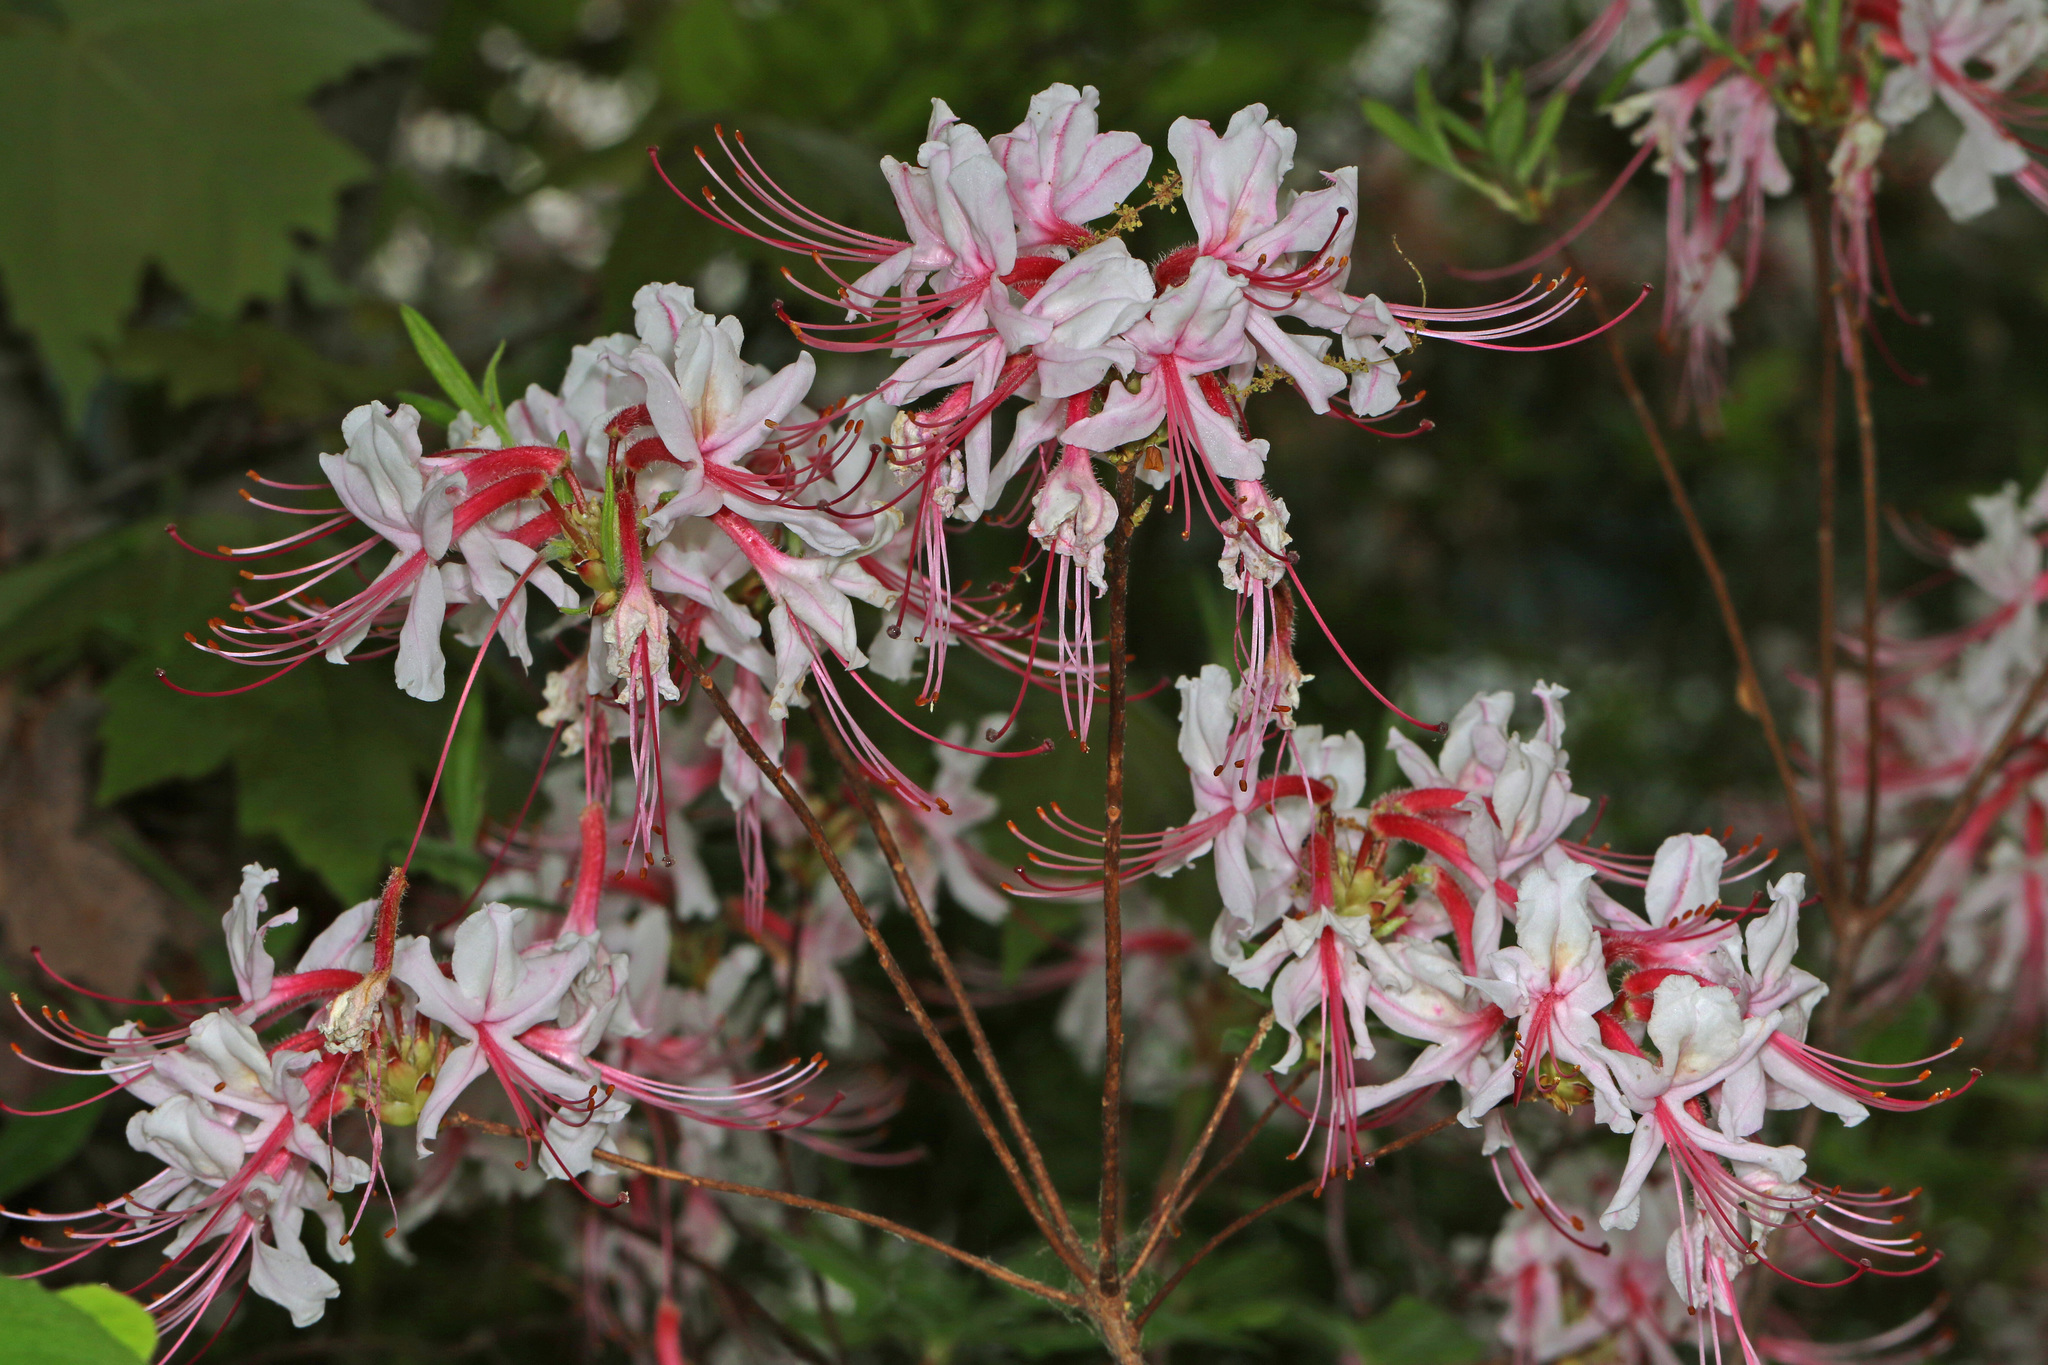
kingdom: Plantae
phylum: Tracheophyta
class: Magnoliopsida
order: Ericales
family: Ericaceae
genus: Rhododendron
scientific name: Rhododendron periclymenoides
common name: Election-pink
